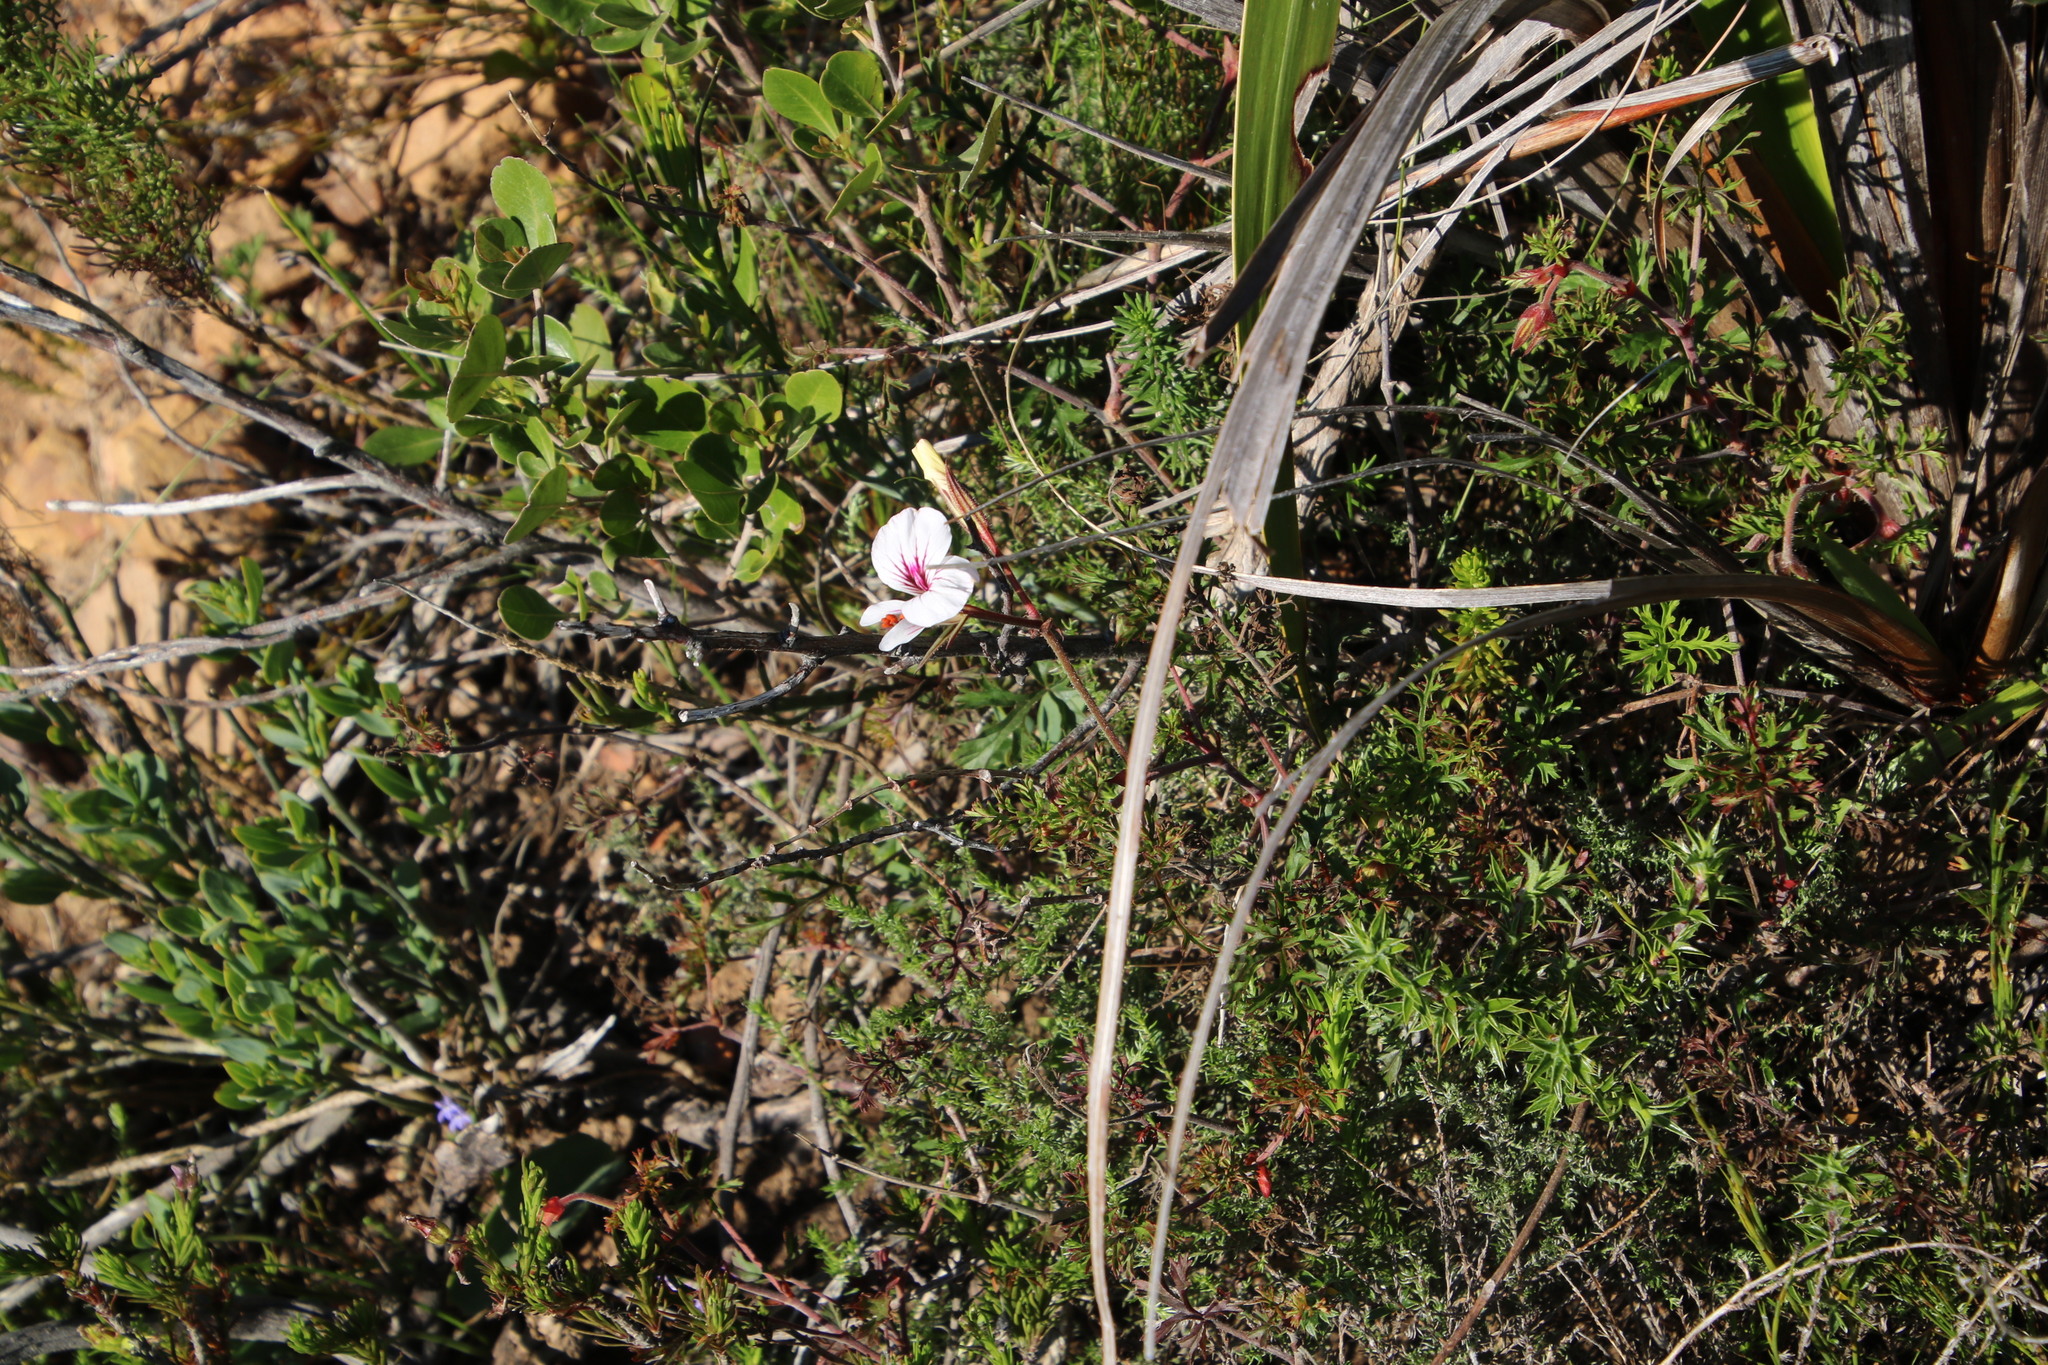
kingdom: Plantae
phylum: Tracheophyta
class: Magnoliopsida
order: Geraniales
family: Geraniaceae
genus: Pelargonium
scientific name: Pelargonium myrrhifolium
